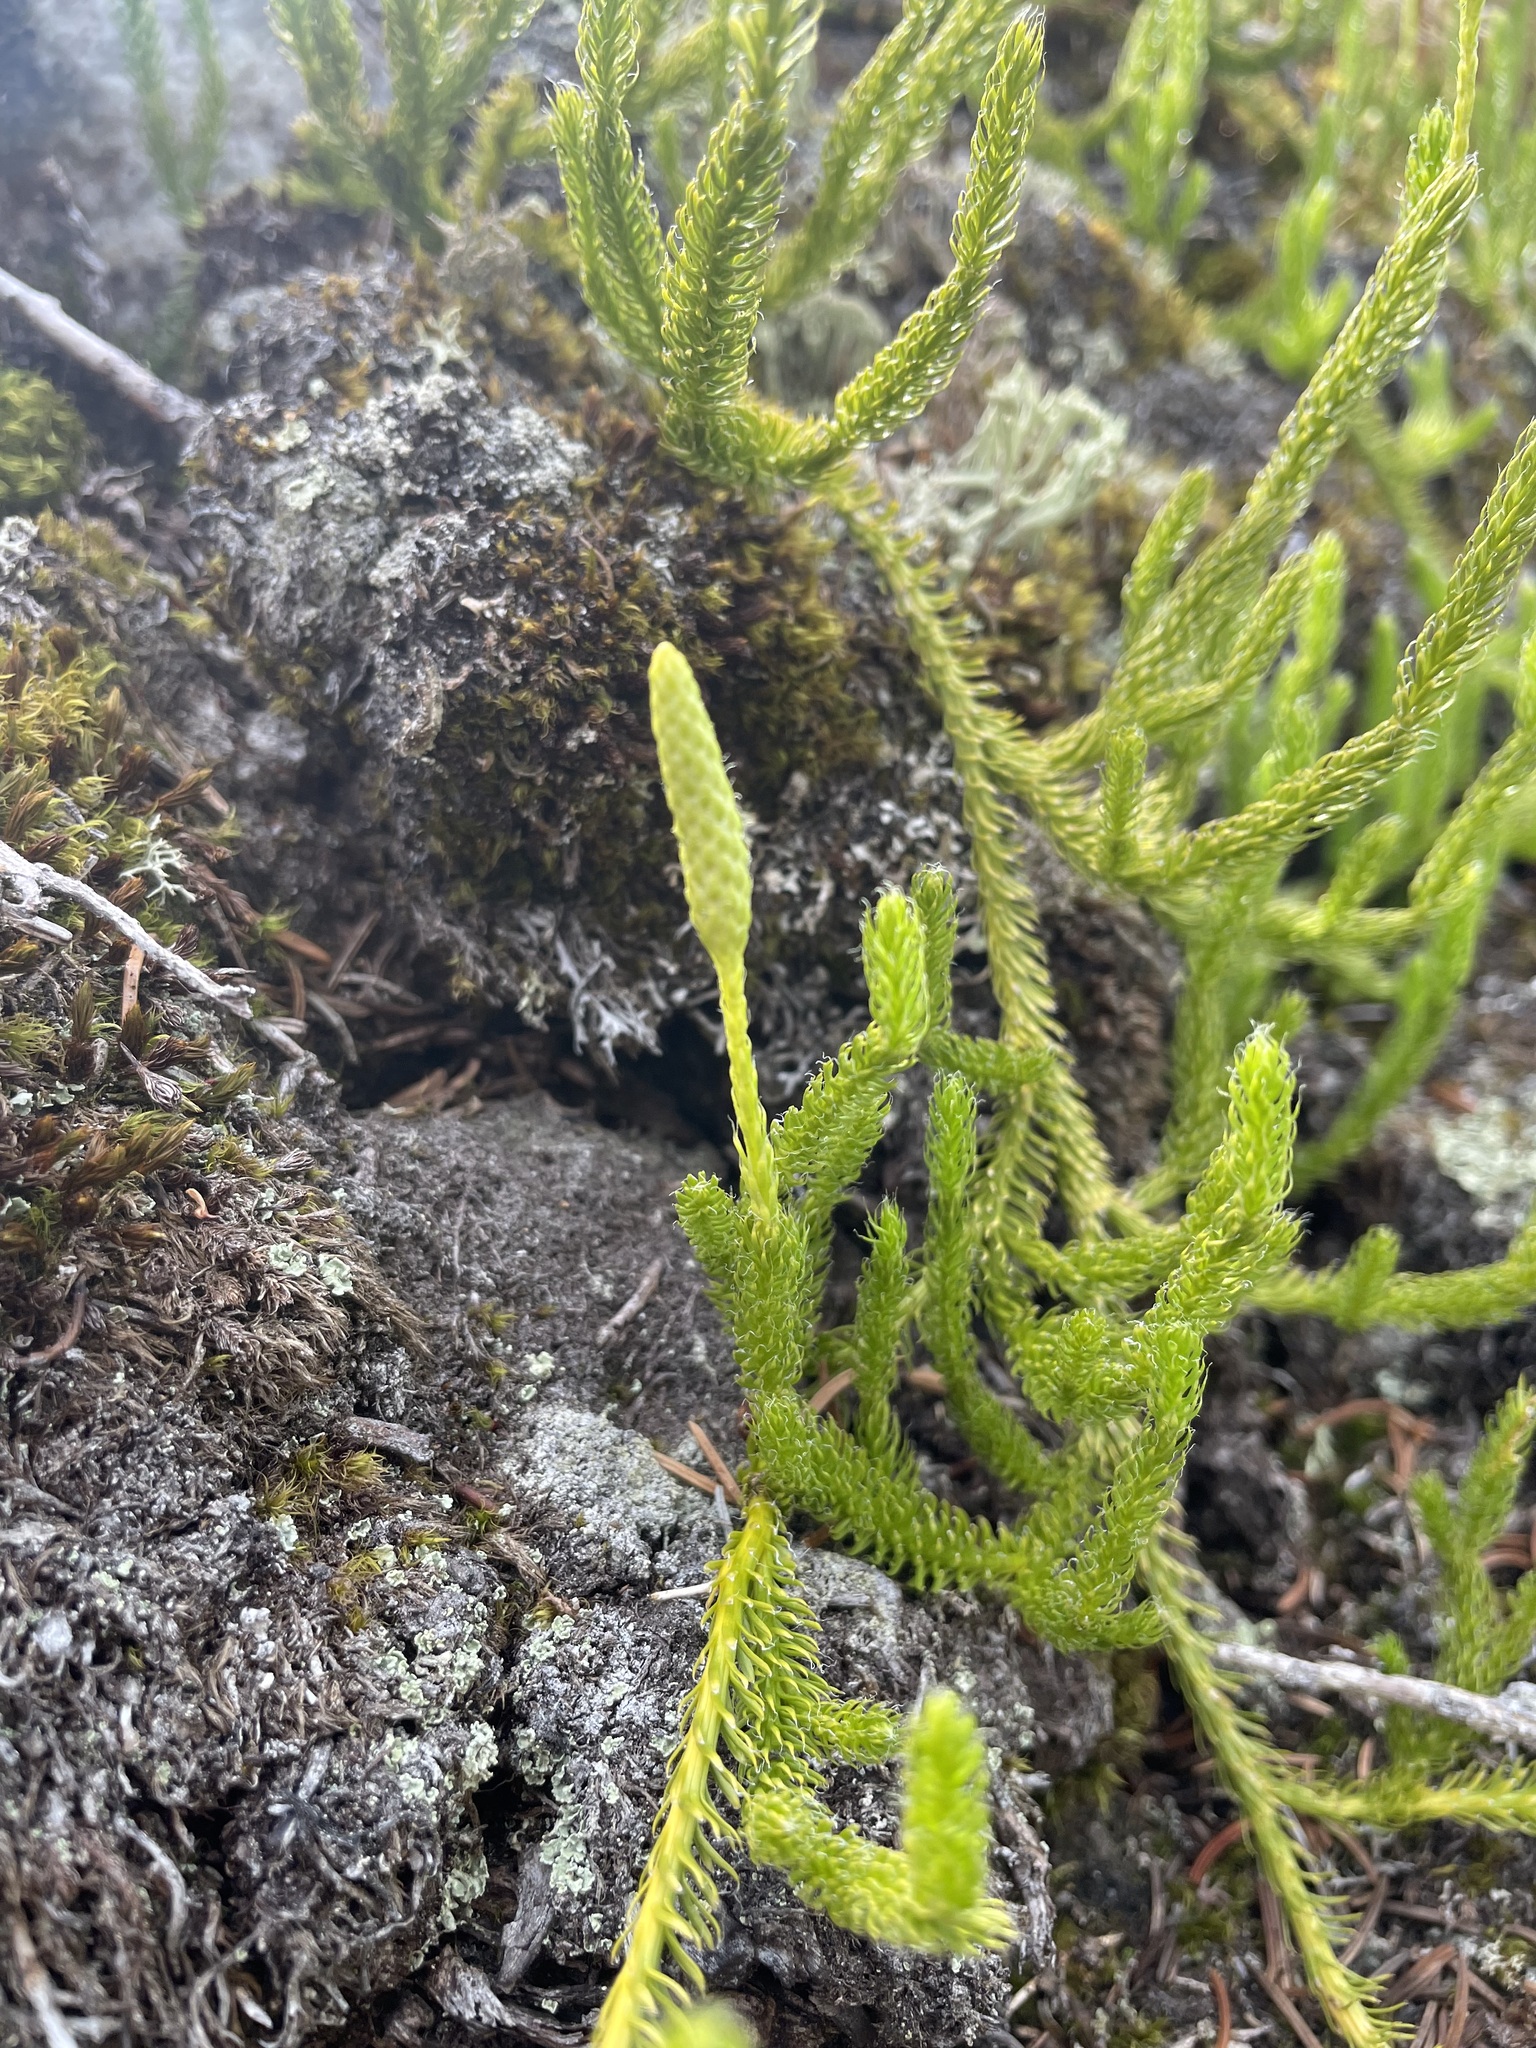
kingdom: Plantae
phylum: Tracheophyta
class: Lycopodiopsida
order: Lycopodiales
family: Lycopodiaceae
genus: Lycopodium
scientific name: Lycopodium lagopus
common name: One-cone clubmoss
